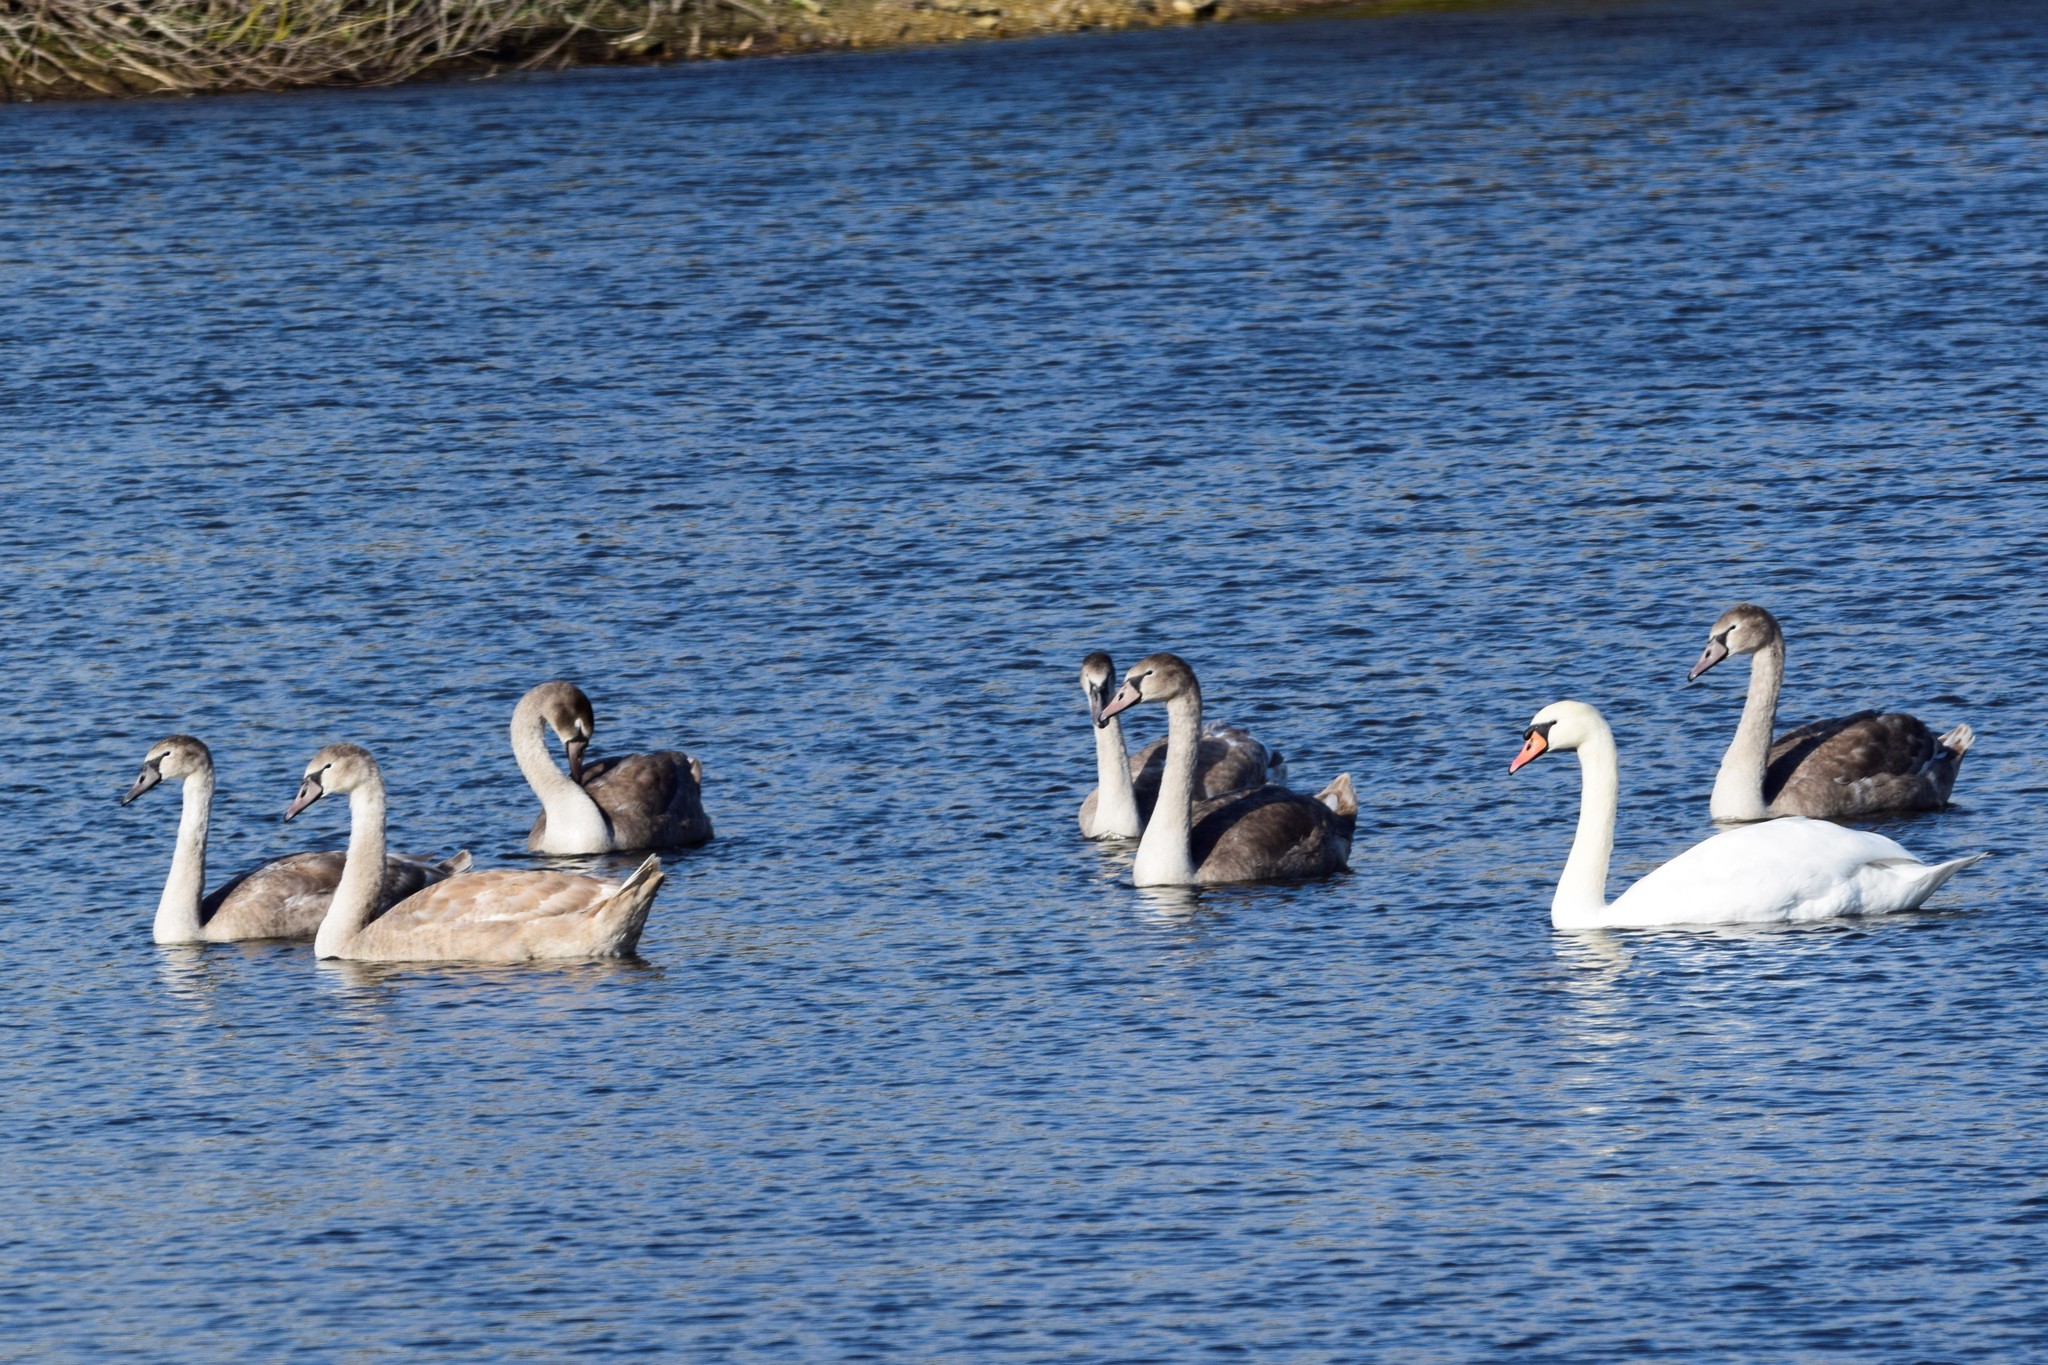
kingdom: Animalia
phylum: Chordata
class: Aves
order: Anseriformes
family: Anatidae
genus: Cygnus
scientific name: Cygnus olor
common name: Mute swan
